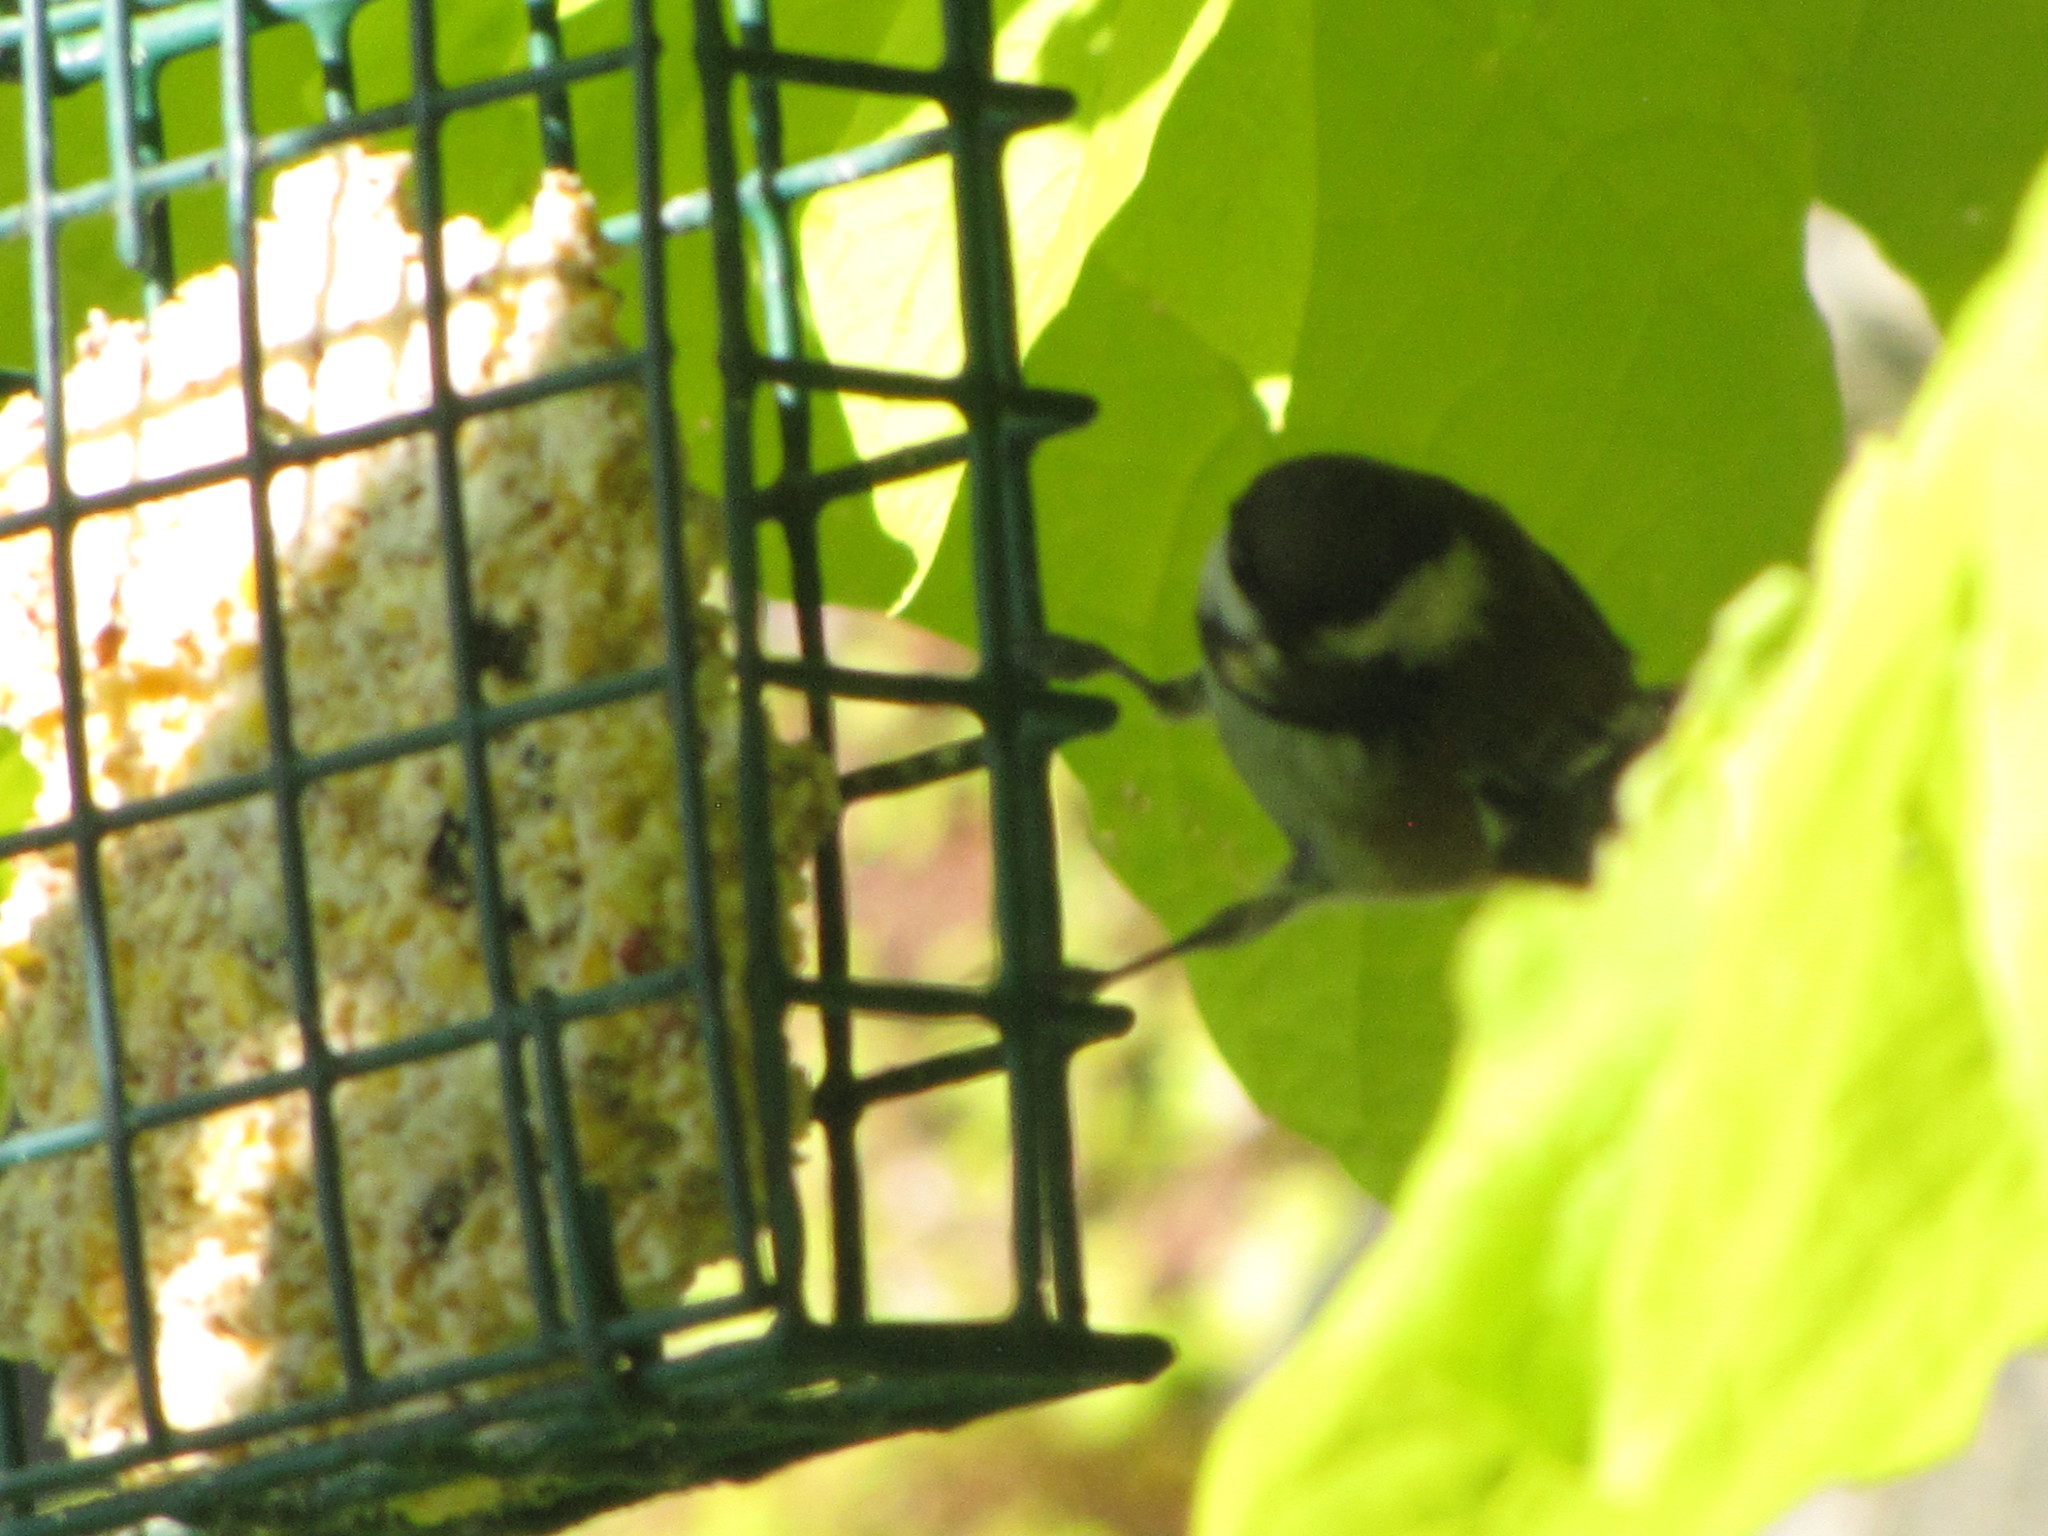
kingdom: Animalia
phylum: Chordata
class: Aves
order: Passeriformes
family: Paridae
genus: Poecile
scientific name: Poecile rufescens
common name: Chestnut-backed chickadee
